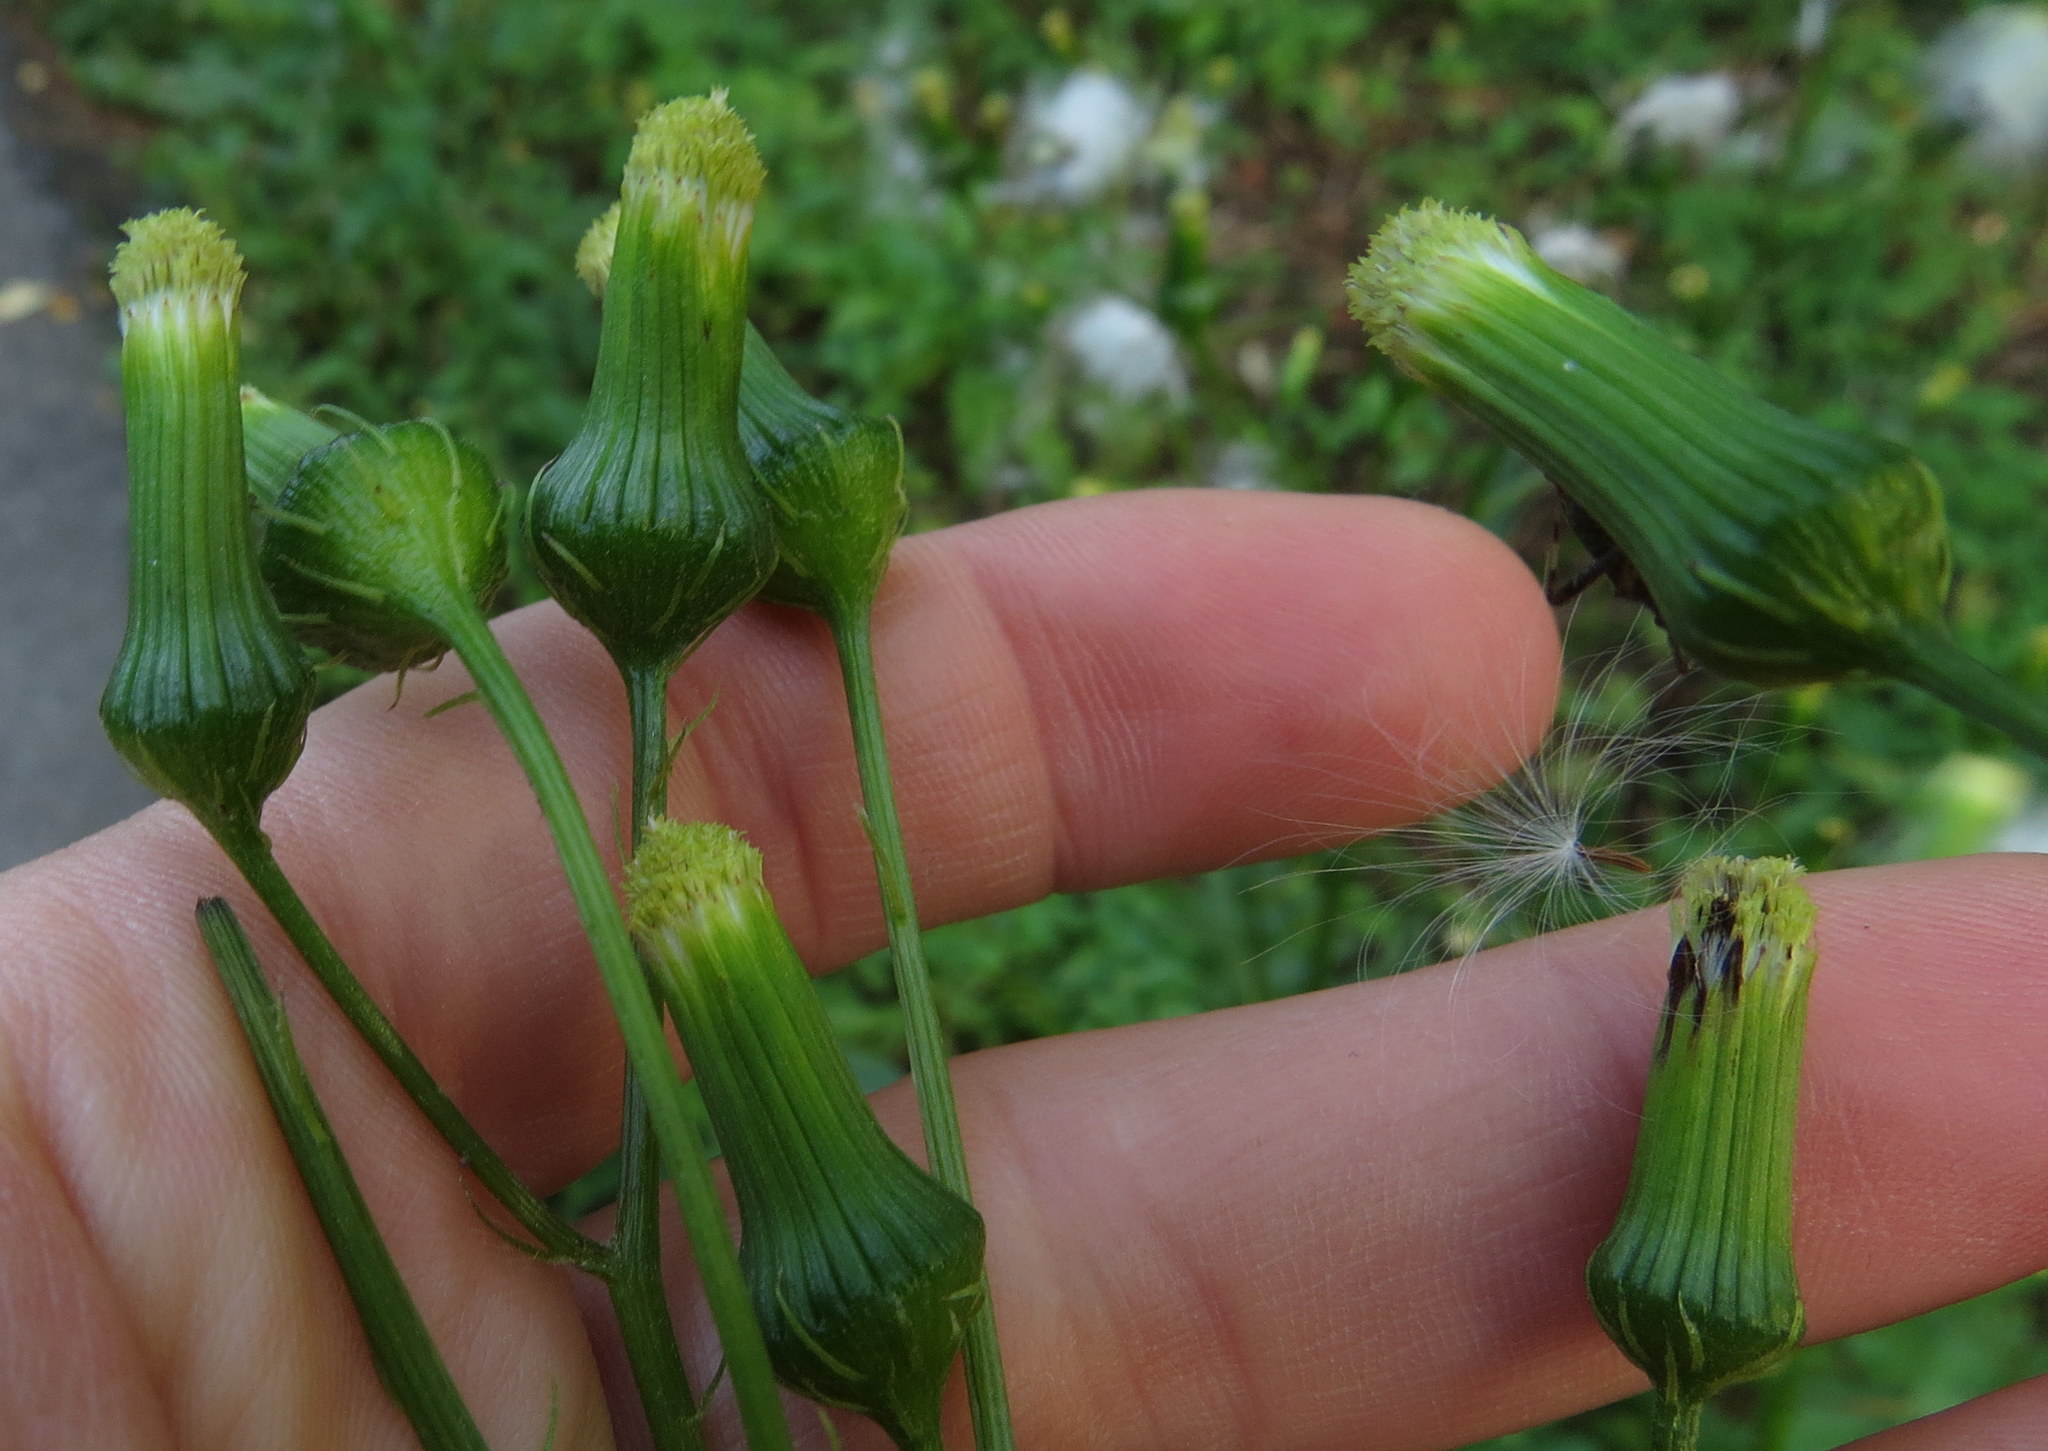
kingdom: Plantae
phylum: Tracheophyta
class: Magnoliopsida
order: Asterales
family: Asteraceae
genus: Erechtites
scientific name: Erechtites hieraciifolius
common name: American burnweed
